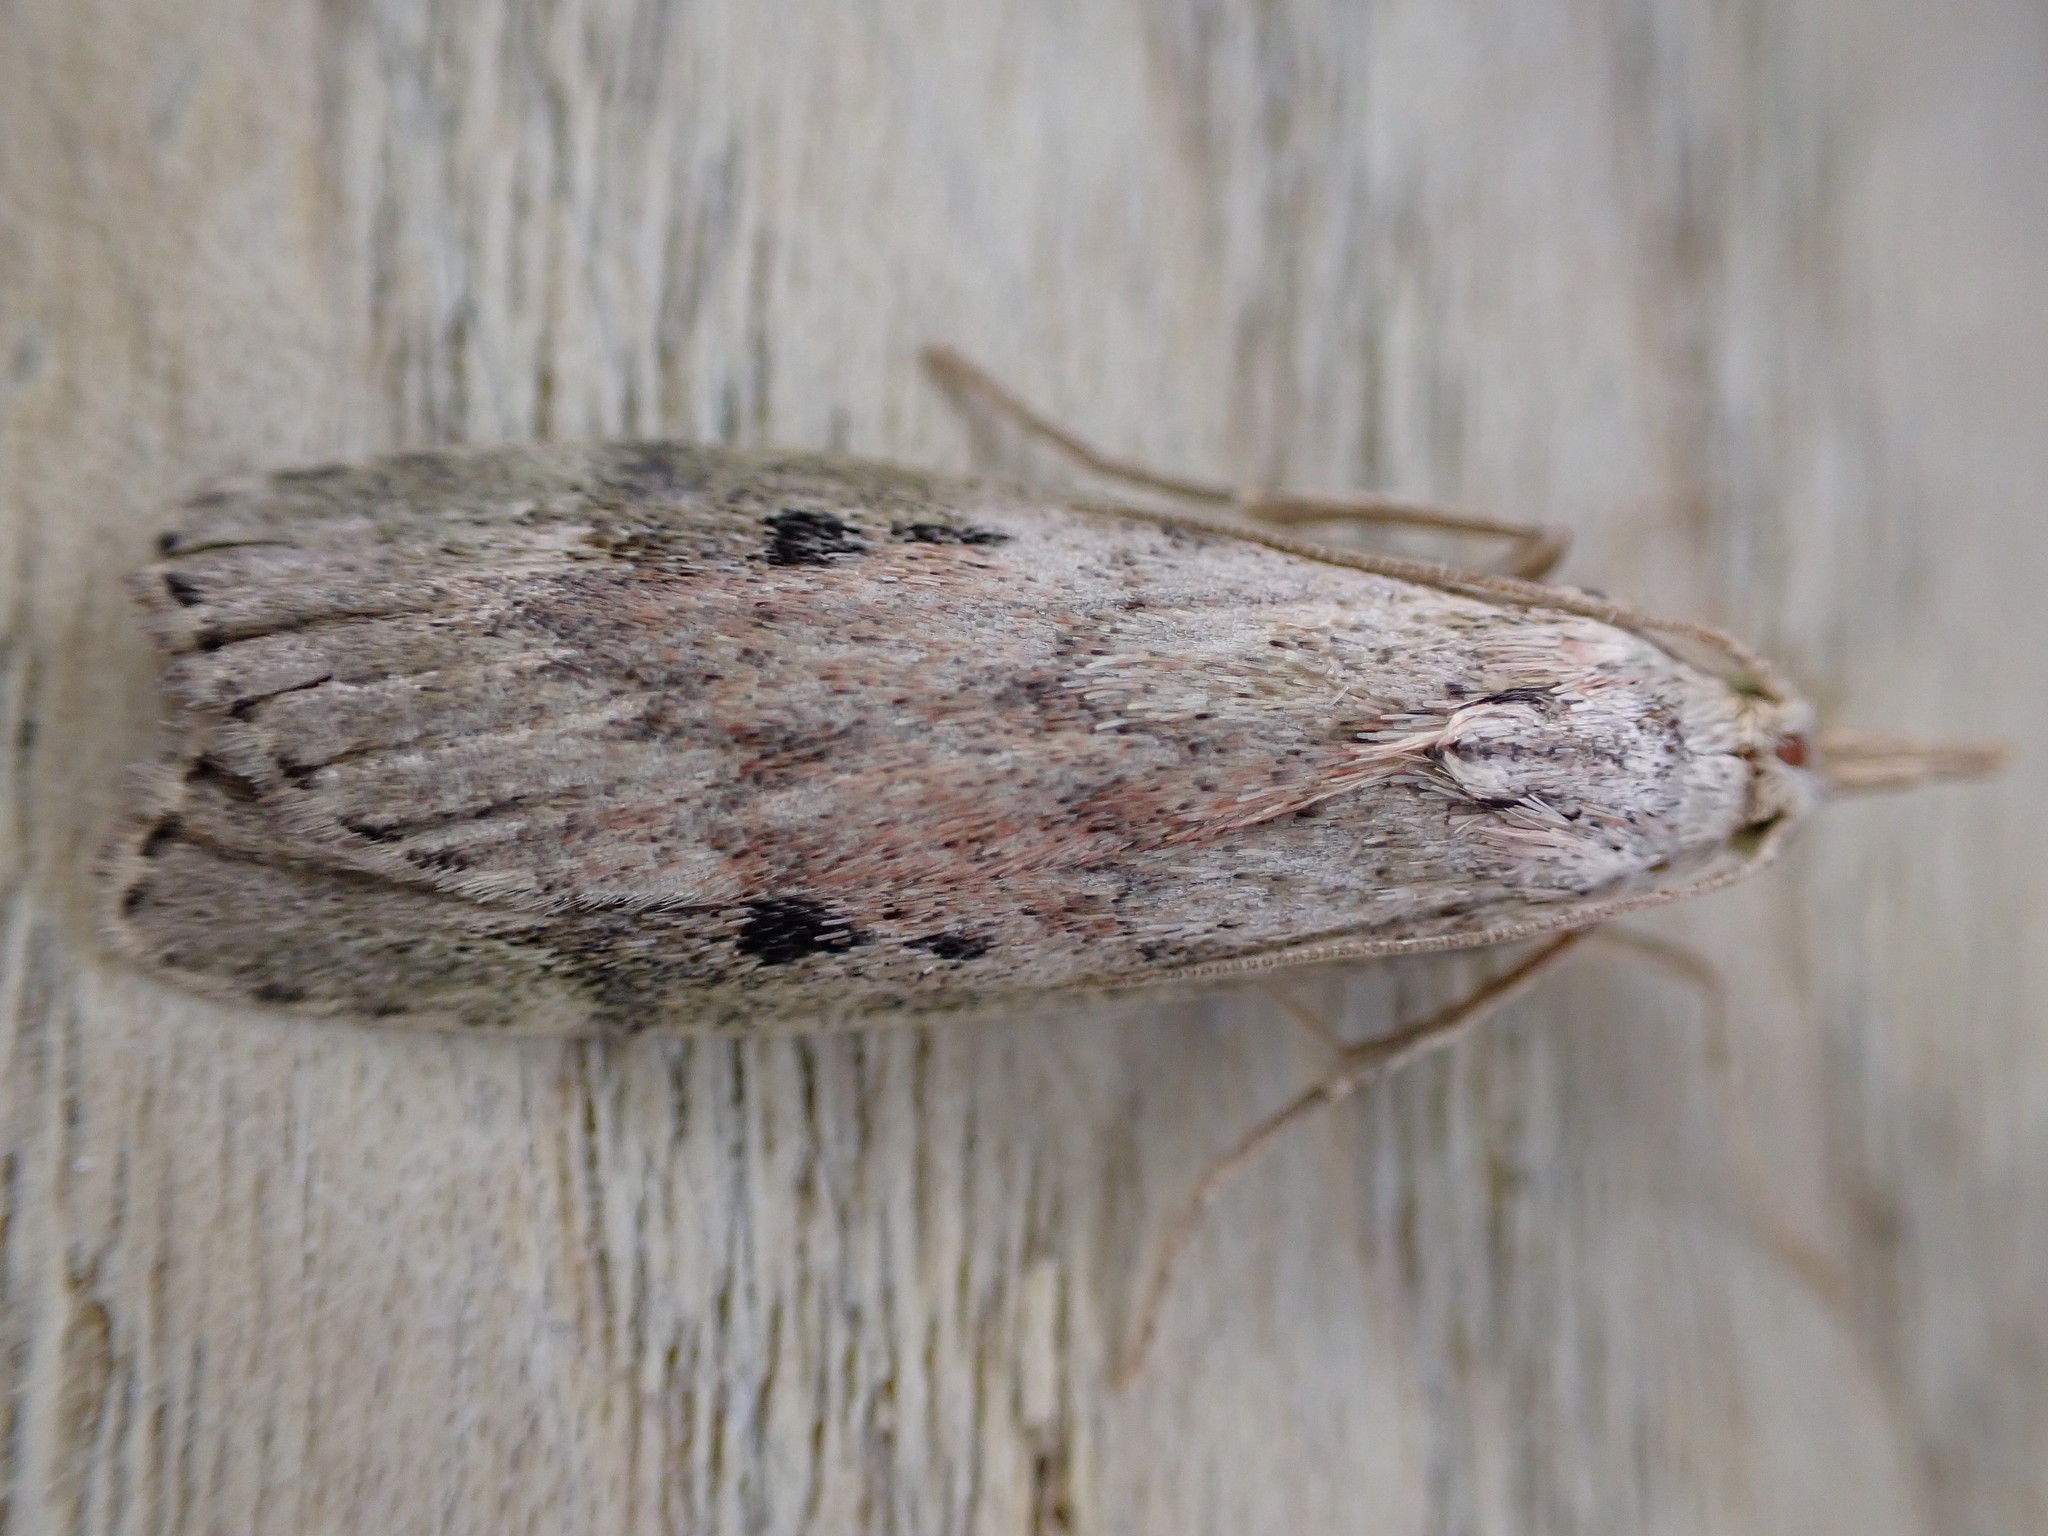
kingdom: Animalia
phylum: Arthropoda
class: Insecta
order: Lepidoptera
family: Pyralidae
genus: Aphomia
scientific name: Aphomia sociella
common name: Bee moth
